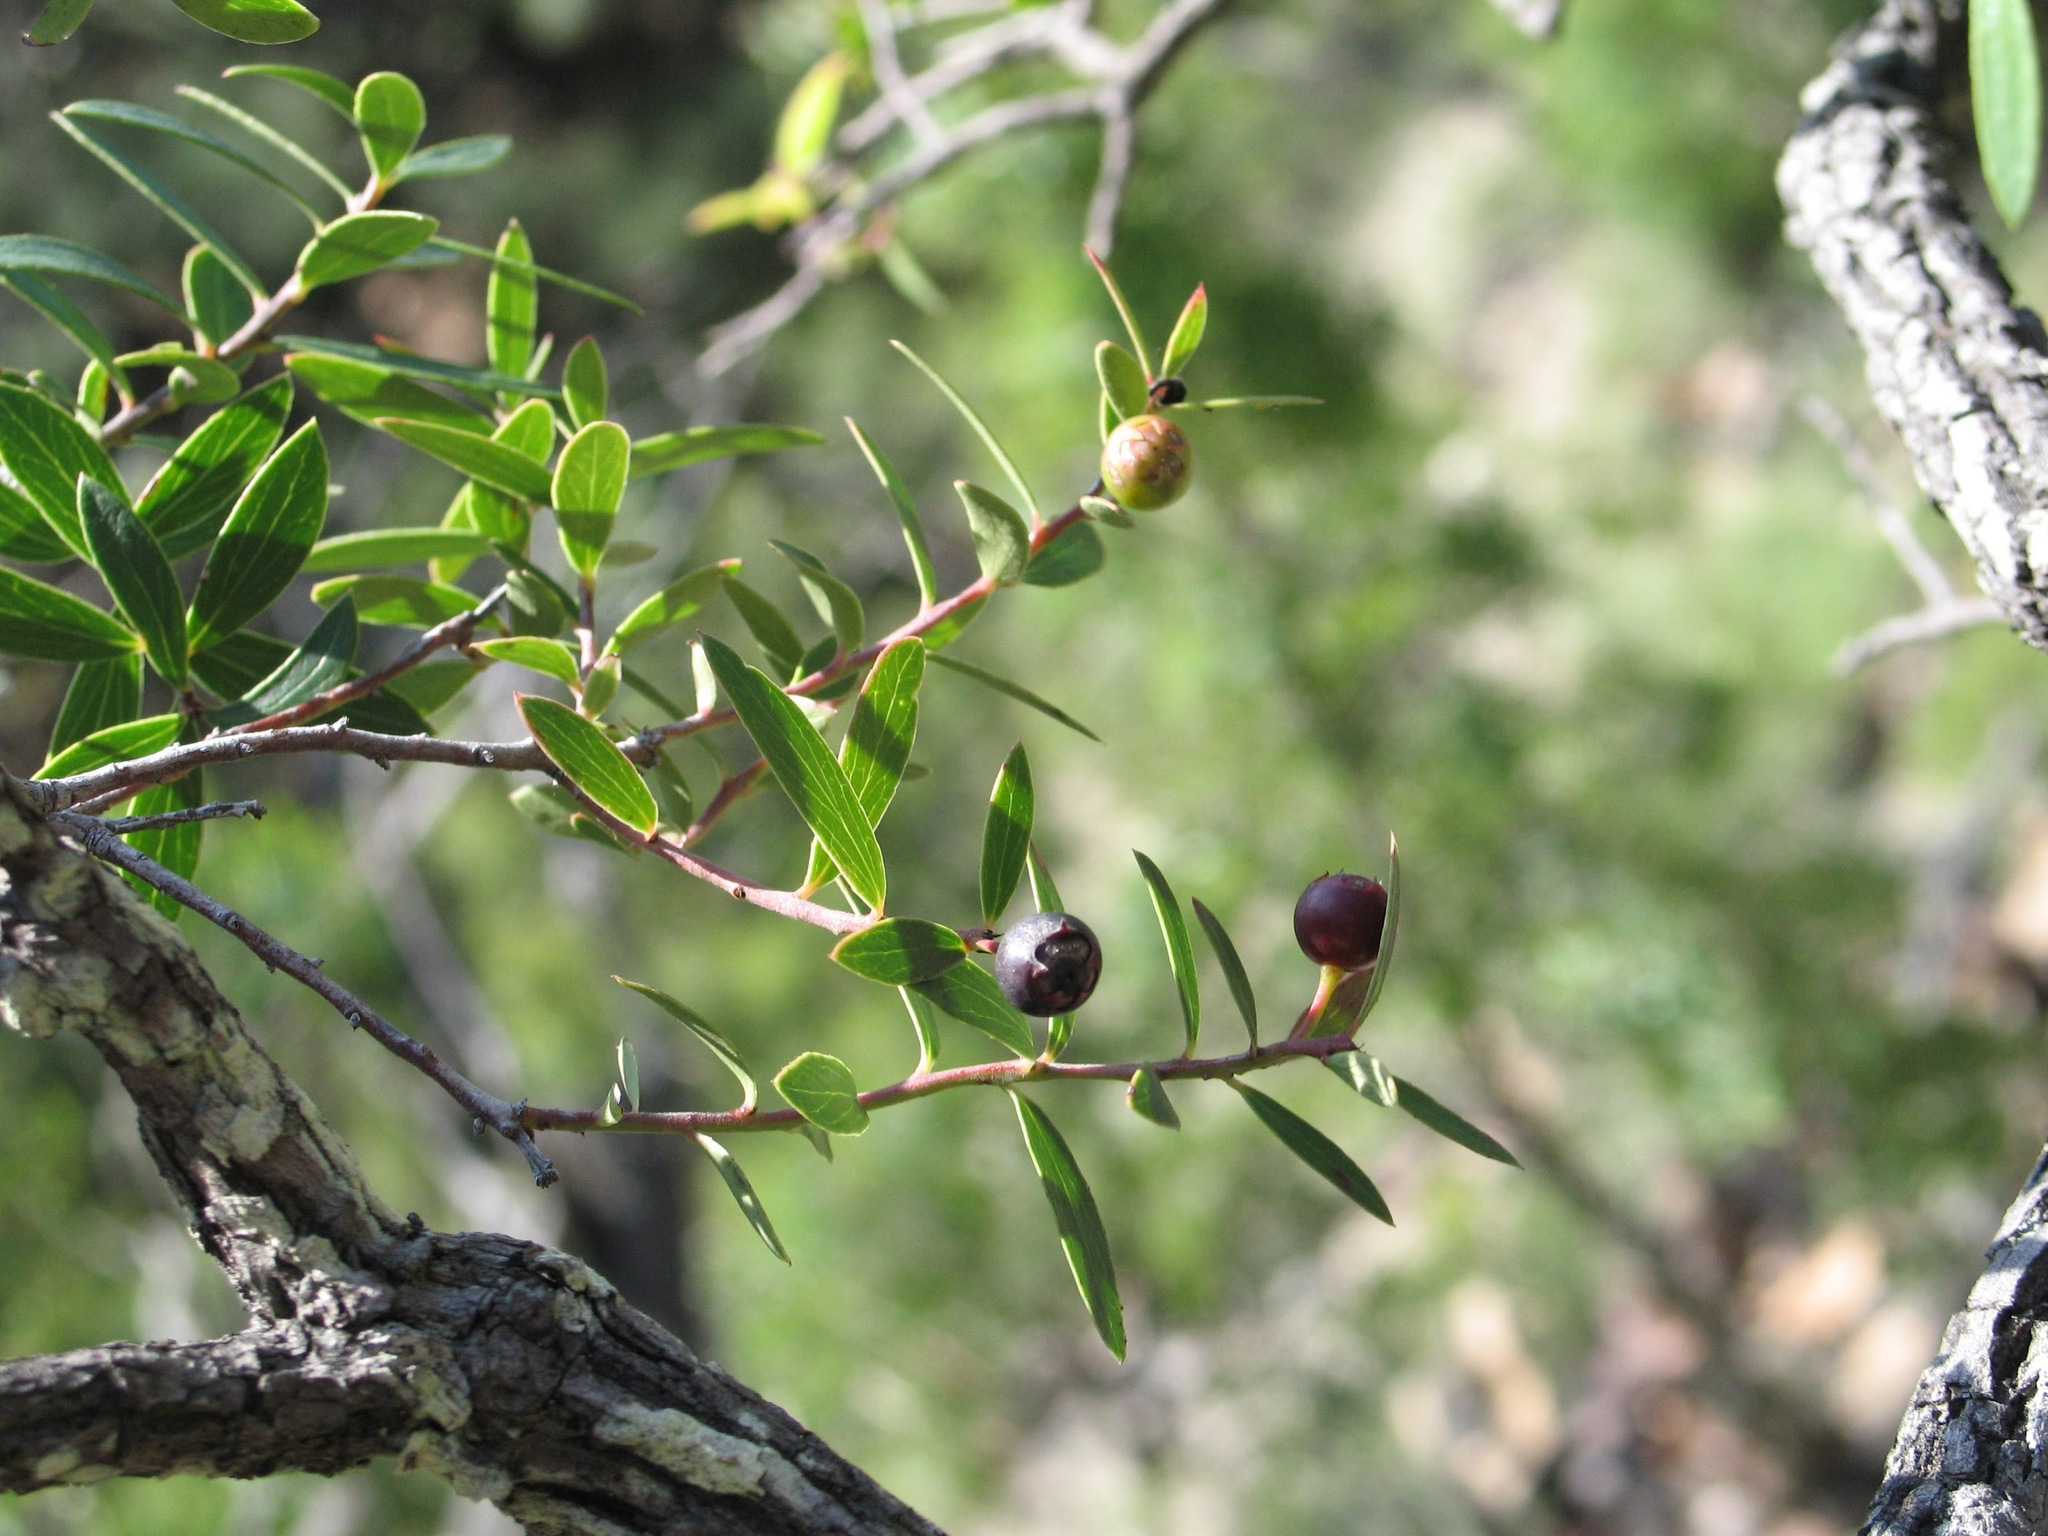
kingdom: Plantae
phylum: Tracheophyta
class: Magnoliopsida
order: Ericales
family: Ericaceae
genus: Vaccinium
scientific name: Vaccinium stenophyllum
